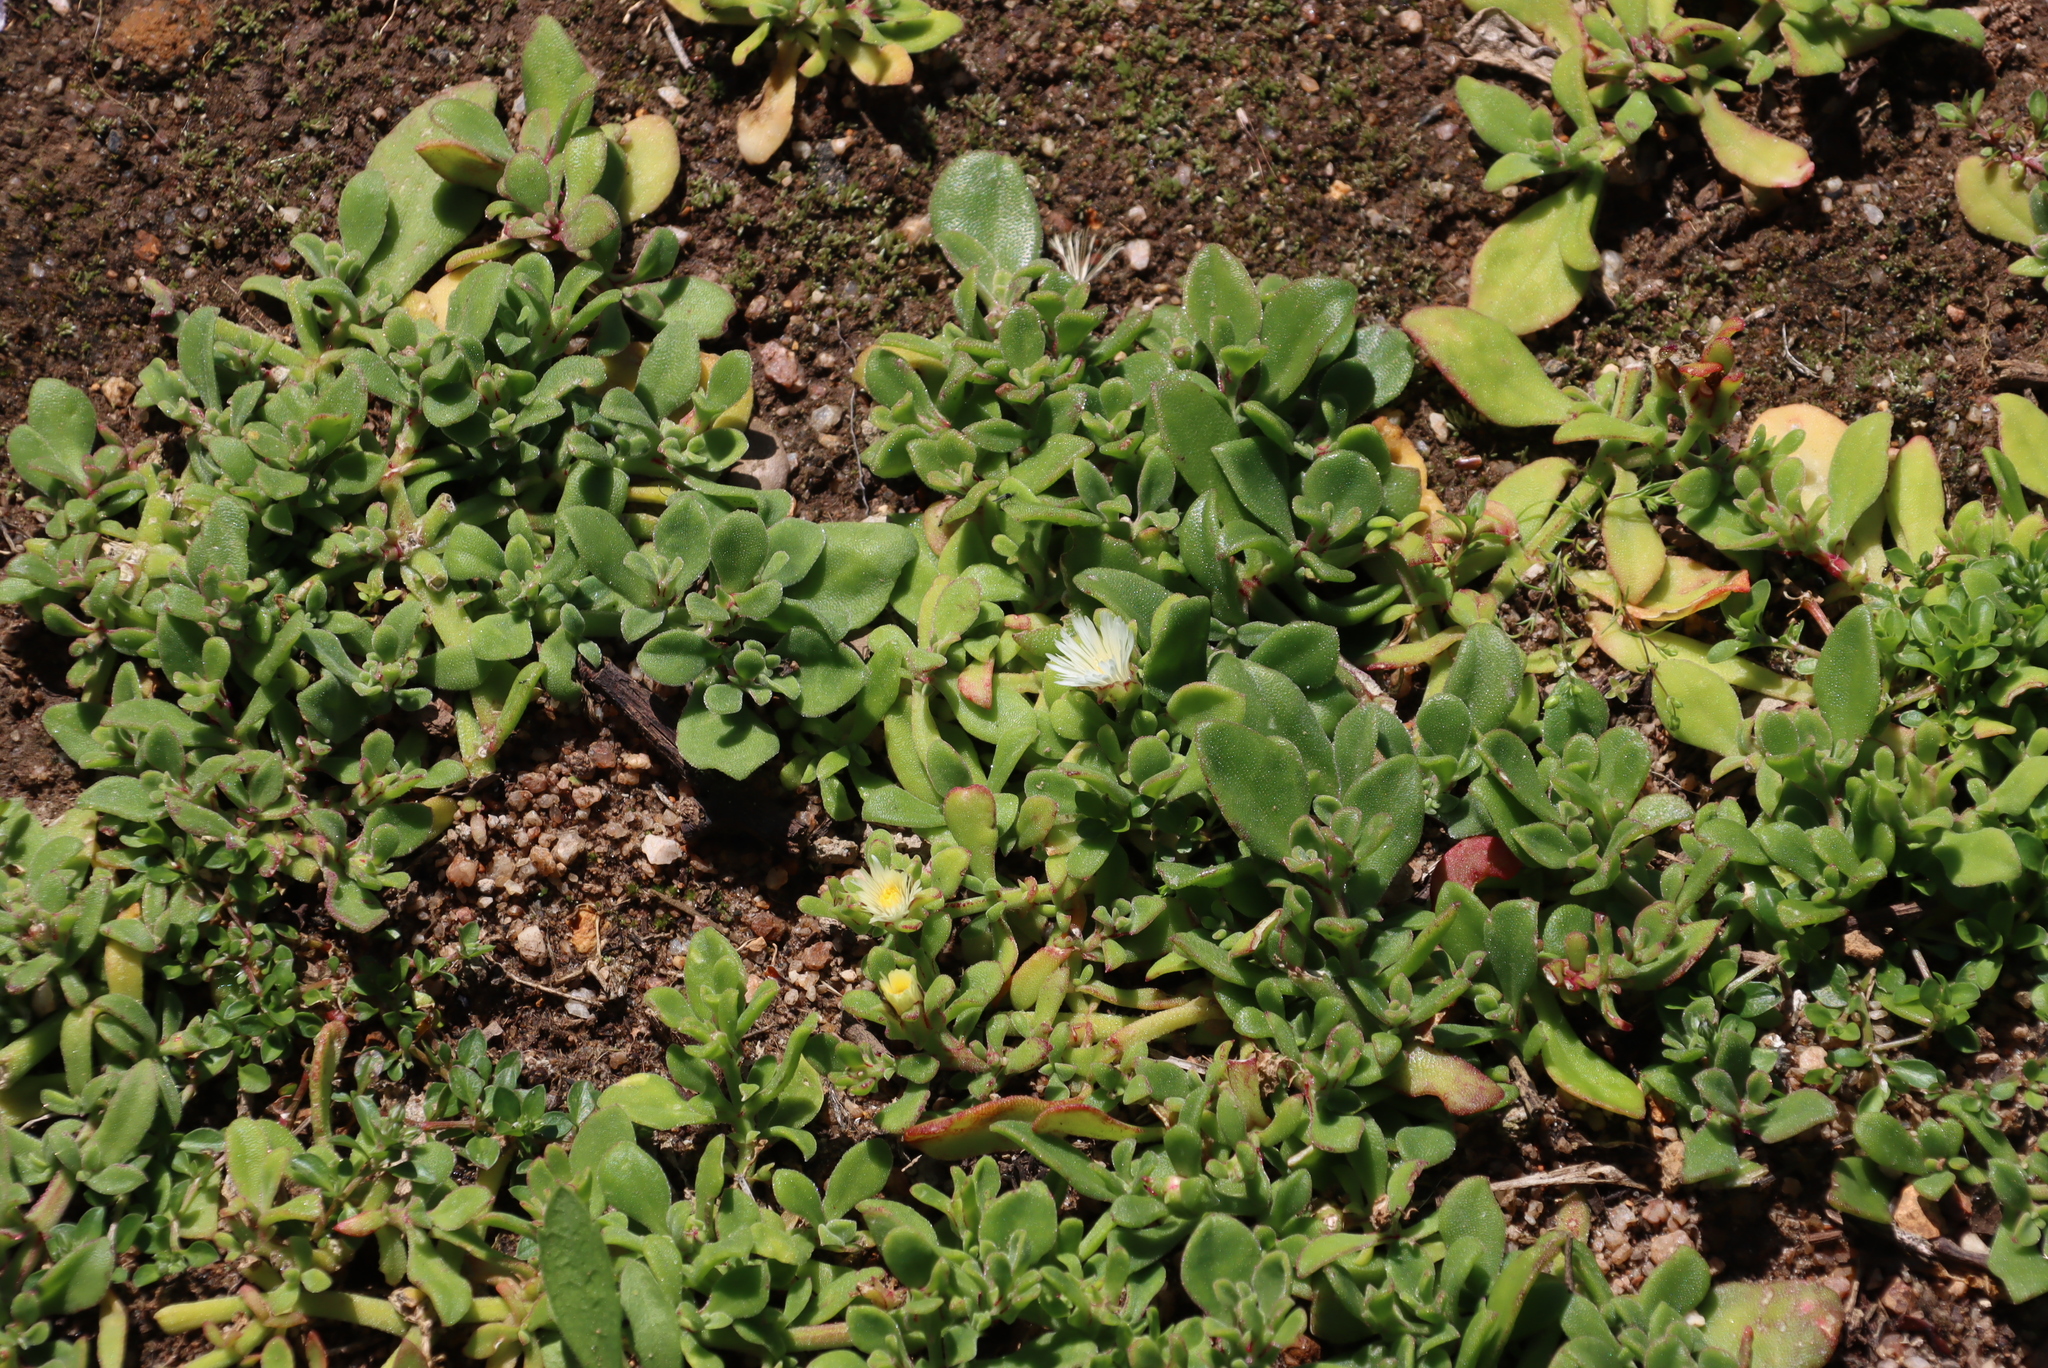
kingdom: Plantae
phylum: Tracheophyta
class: Magnoliopsida
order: Caryophyllales
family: Aizoaceae
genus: Mesembryanthemum
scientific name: Mesembryanthemum aitonis
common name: Angled iceplant
